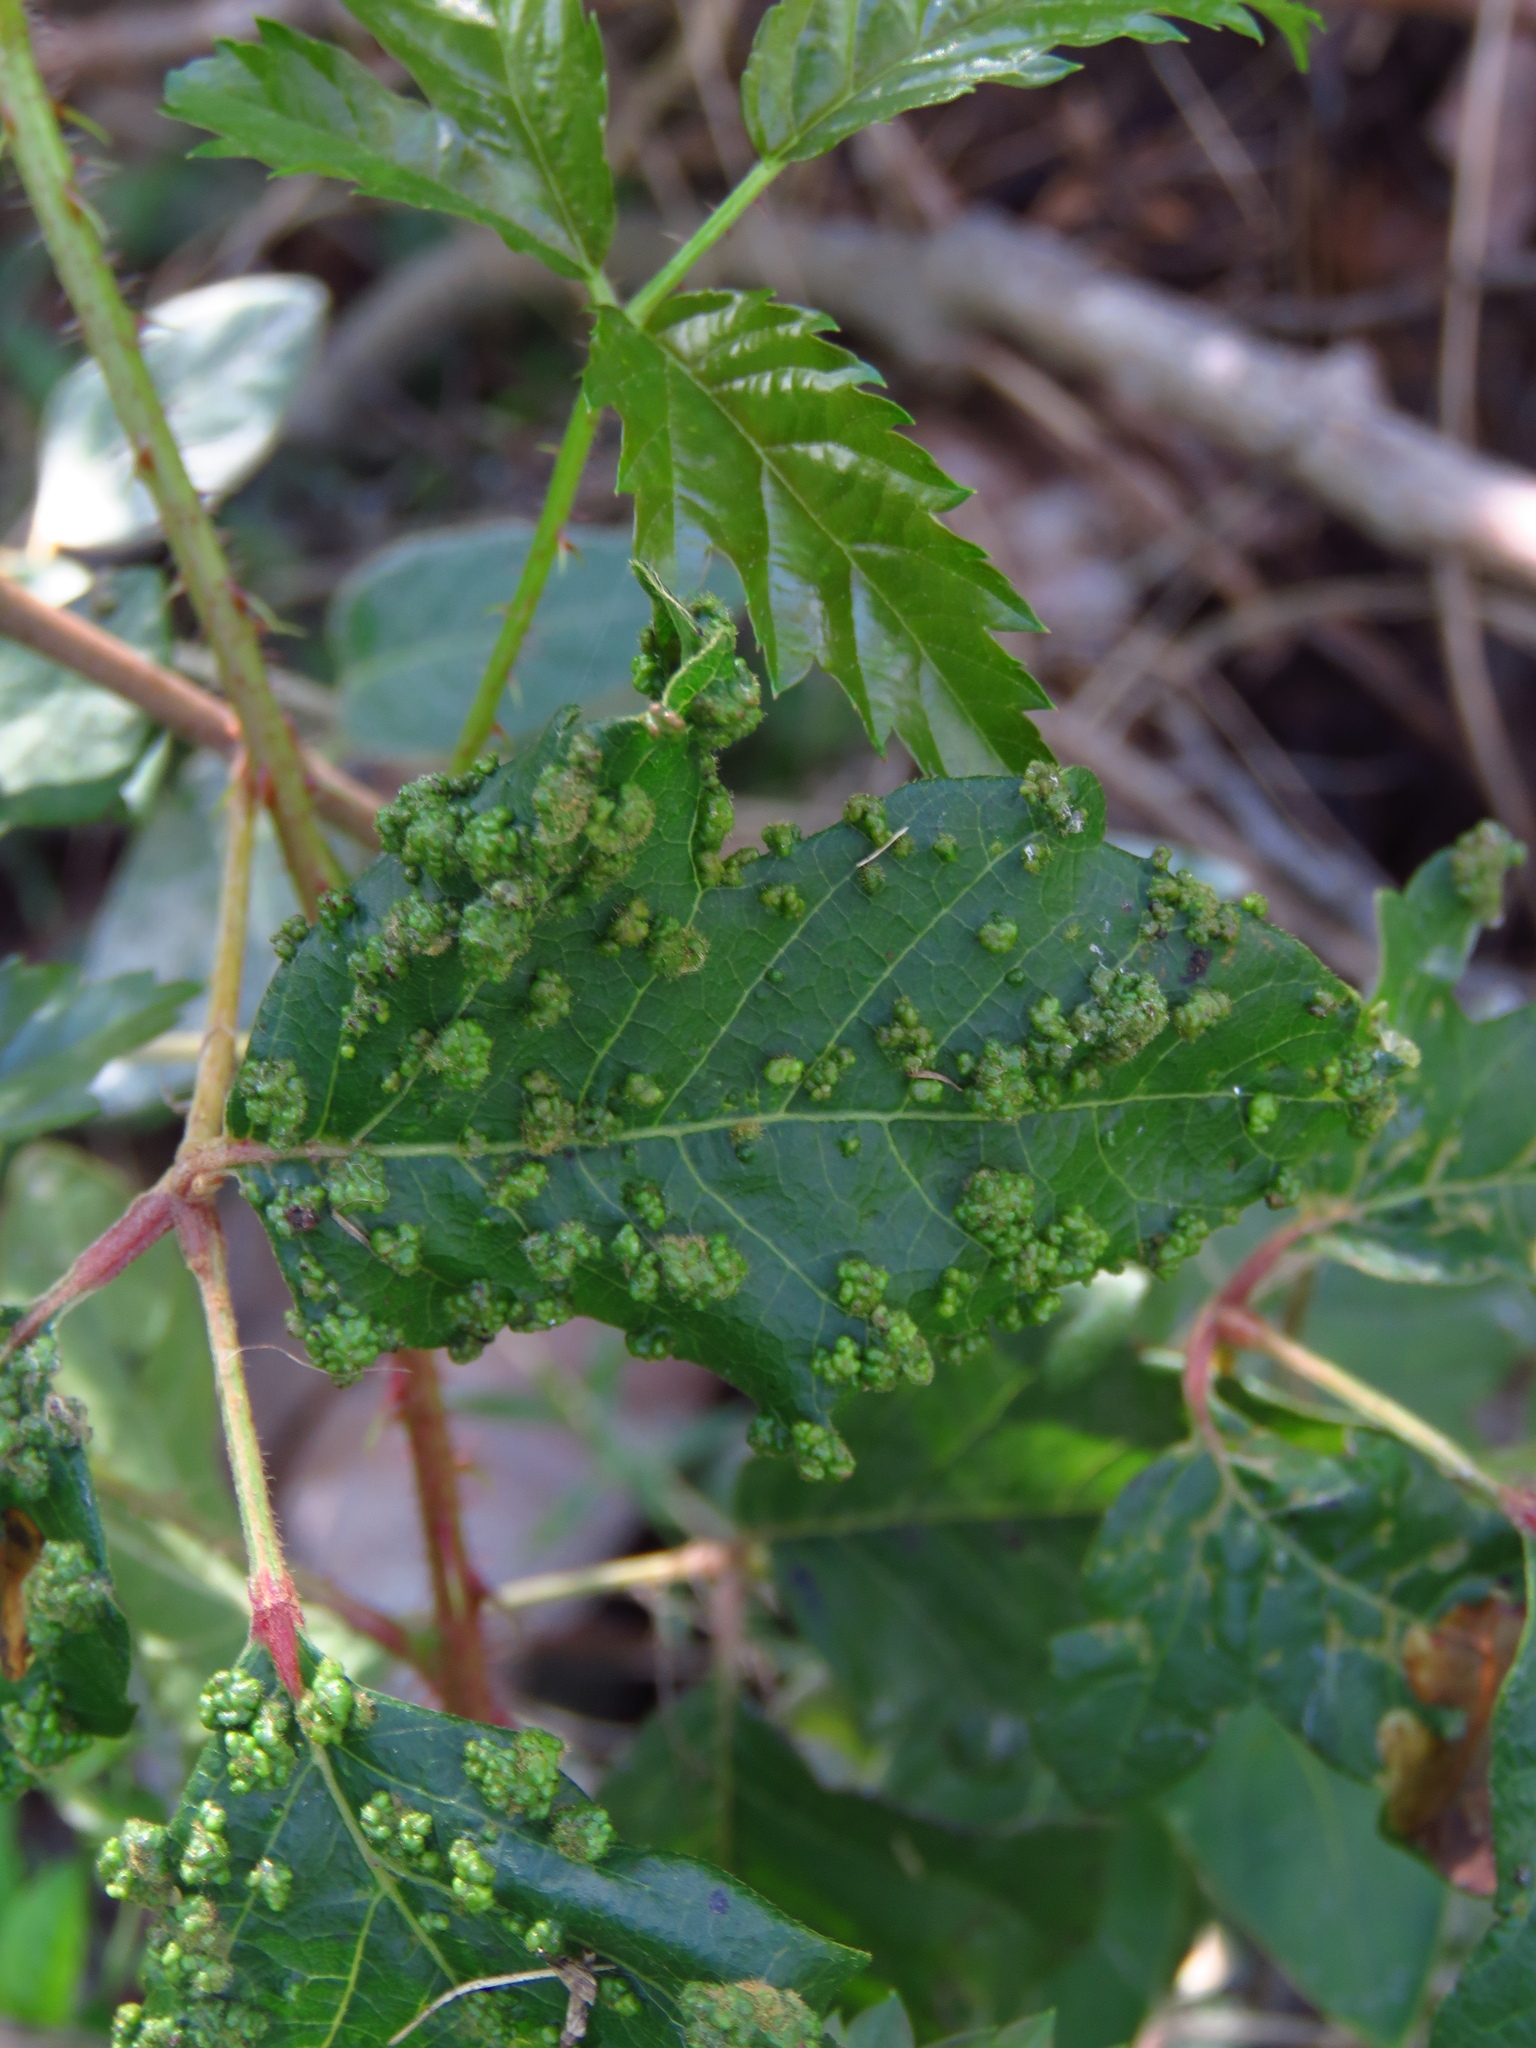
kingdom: Animalia
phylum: Arthropoda
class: Arachnida
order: Trombidiformes
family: Eriophyidae
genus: Aculops
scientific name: Aculops
